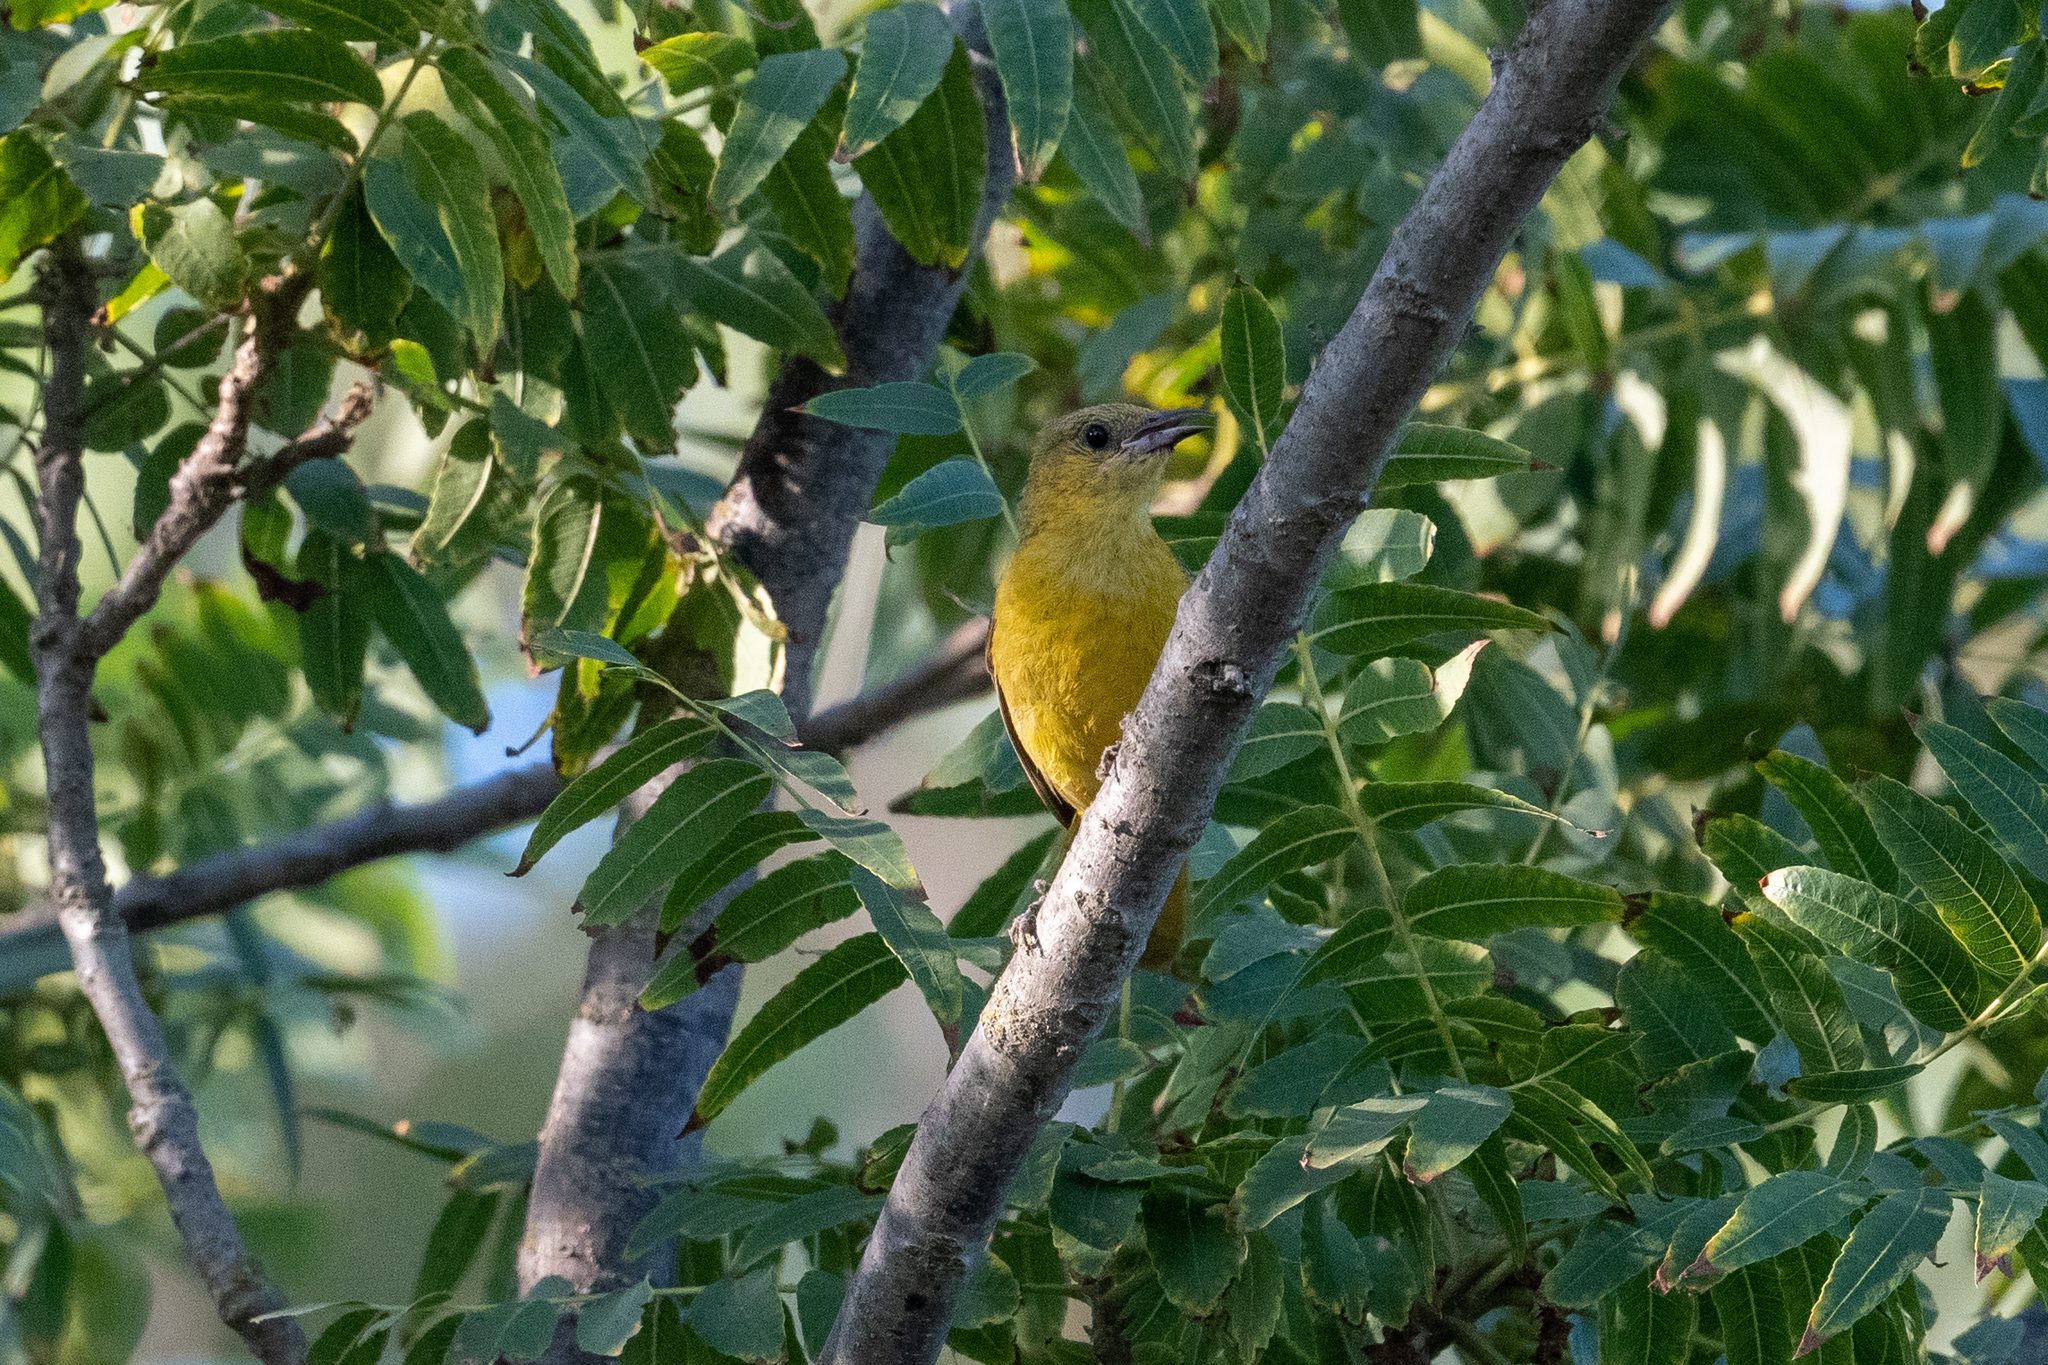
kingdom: Animalia
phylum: Chordata
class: Aves
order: Passeriformes
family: Icteridae
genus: Icterus
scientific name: Icterus cucullatus
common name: Hooded oriole
